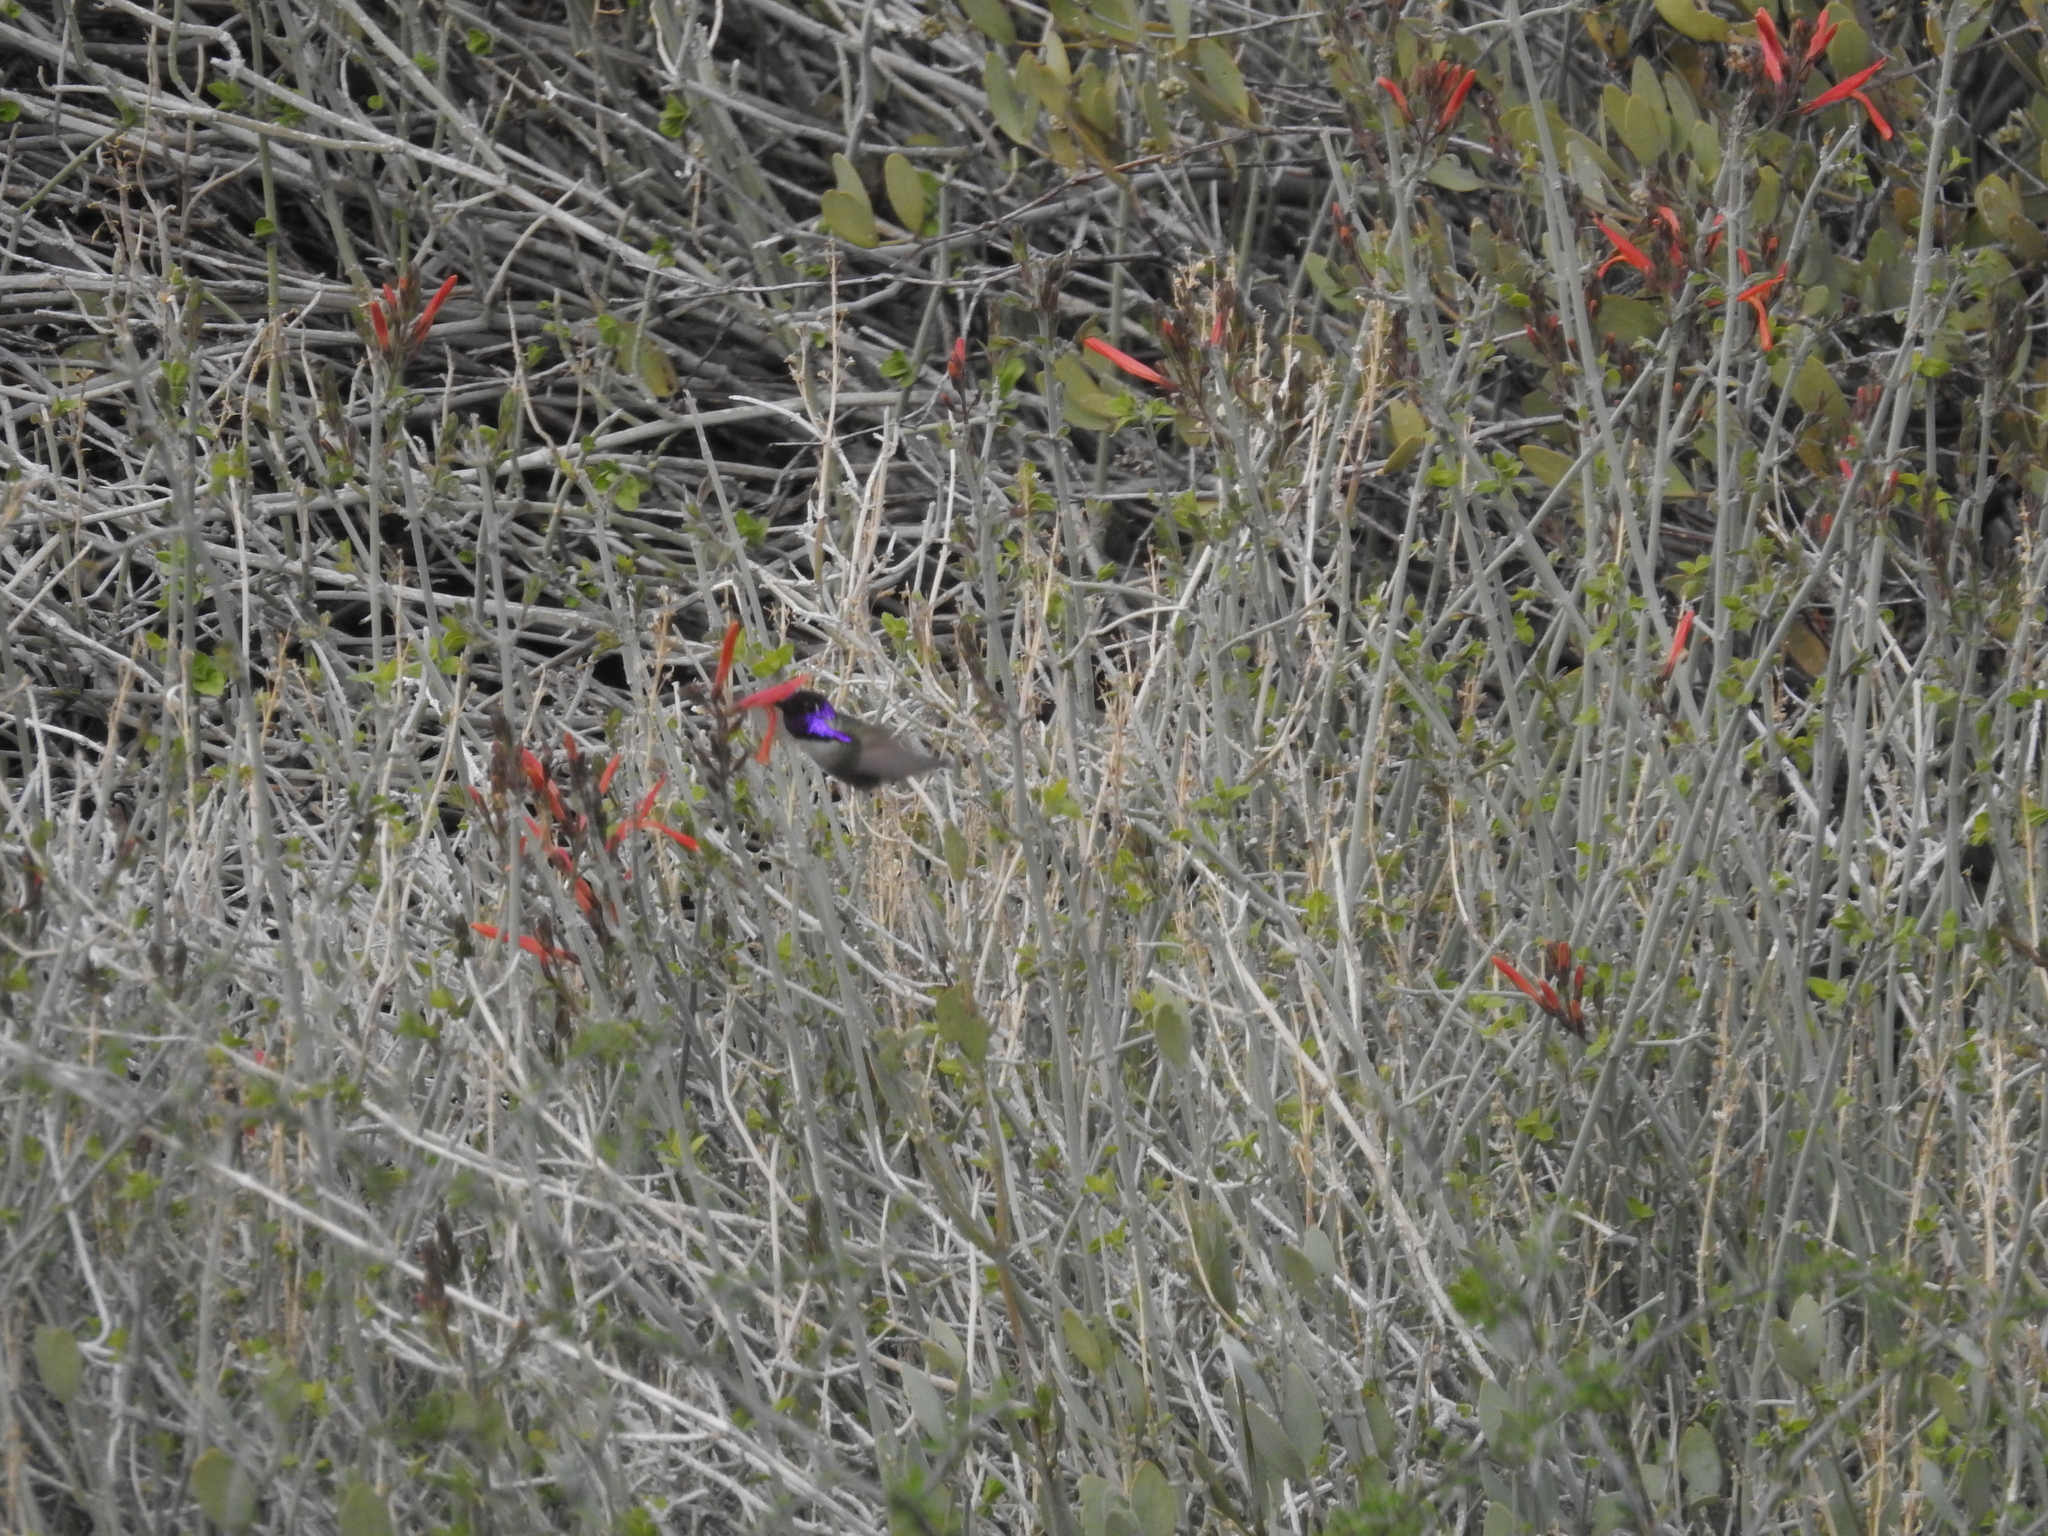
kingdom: Animalia
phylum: Chordata
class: Aves
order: Apodiformes
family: Trochilidae
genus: Calypte
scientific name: Calypte costae
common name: Costa's hummingbird
